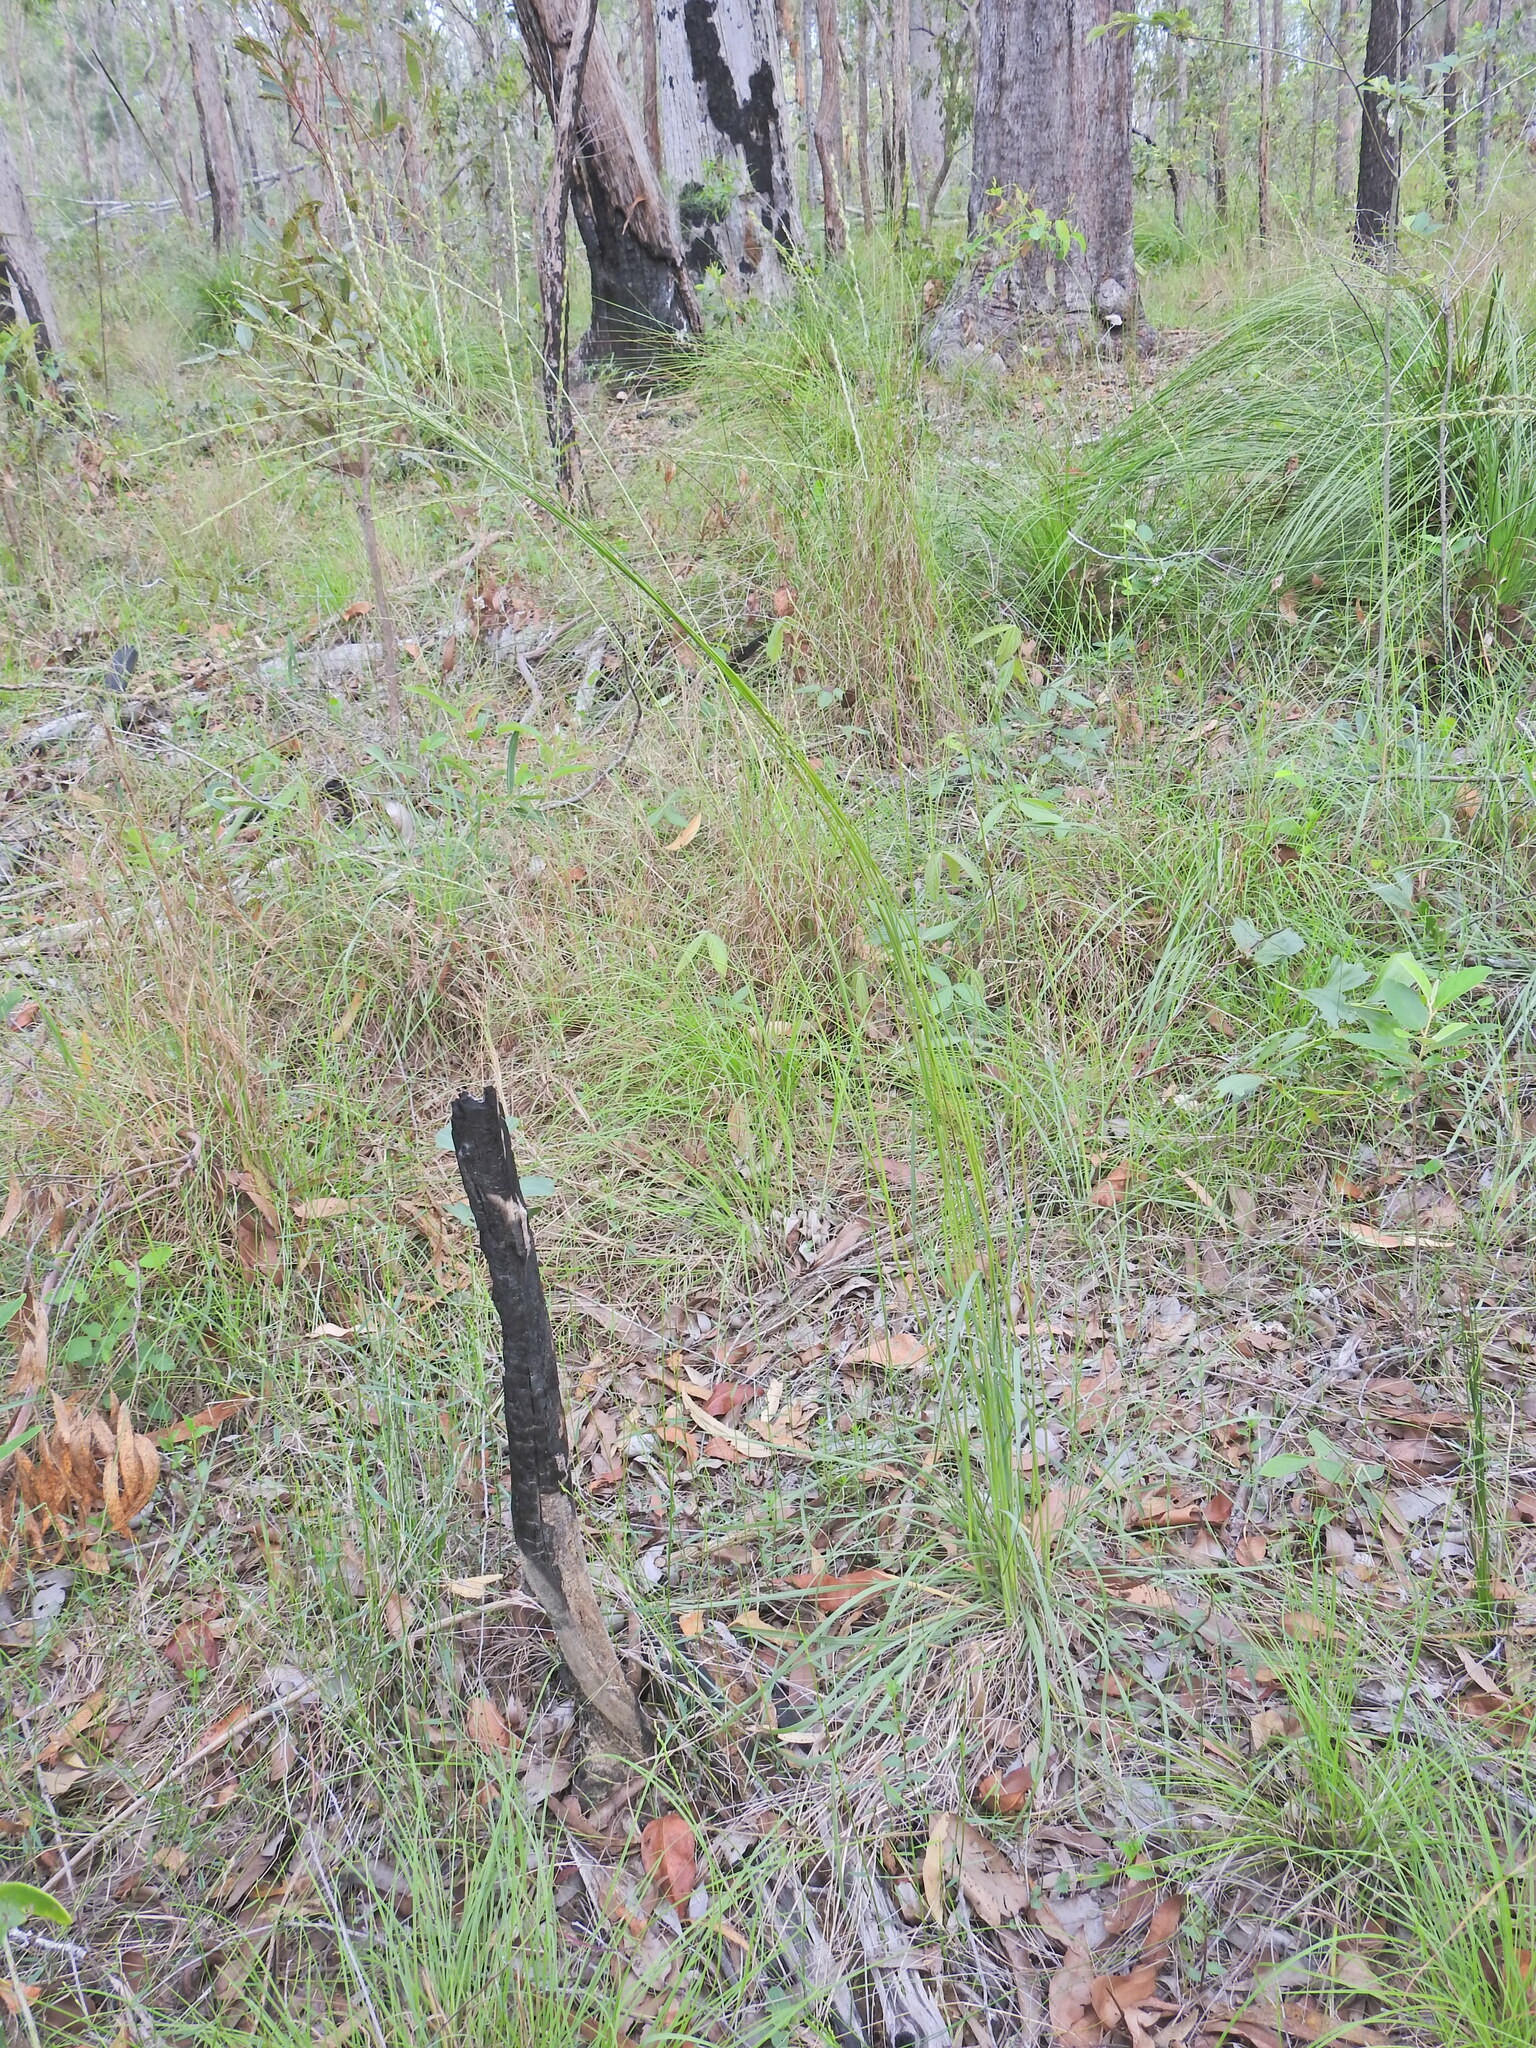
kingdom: Plantae
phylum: Tracheophyta
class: Liliopsida
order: Poales
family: Poaceae
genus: Alloteropsis
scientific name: Alloteropsis semialata
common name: Cockatoo grass
